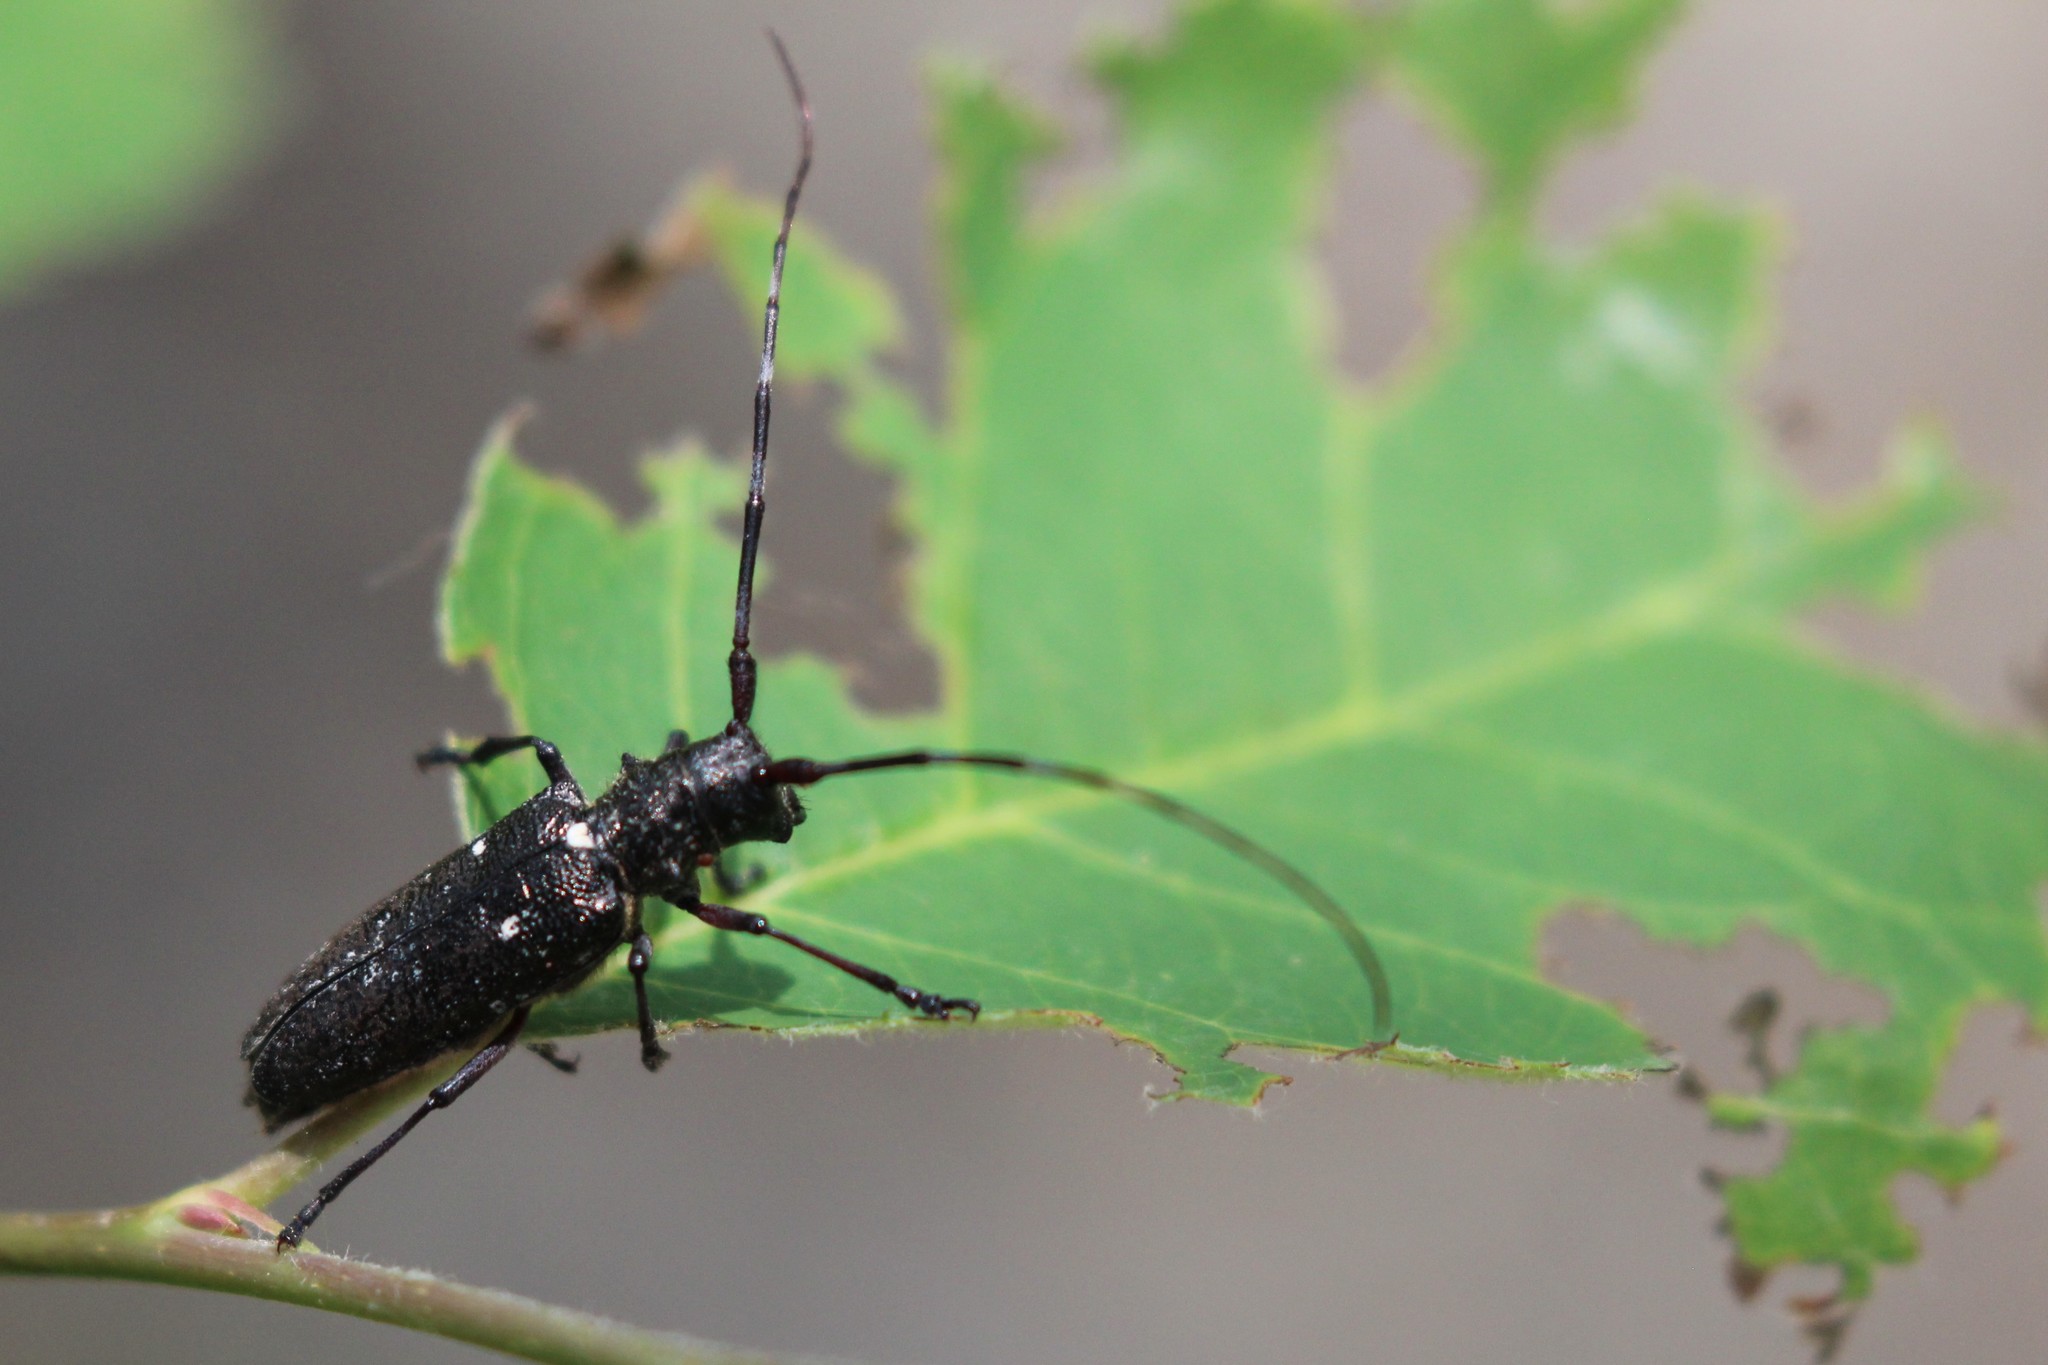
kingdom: Animalia
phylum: Arthropoda
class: Insecta
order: Coleoptera
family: Cerambycidae
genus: Monochamus
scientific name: Monochamus scutellatus
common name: White-spotted sawyer beetle
